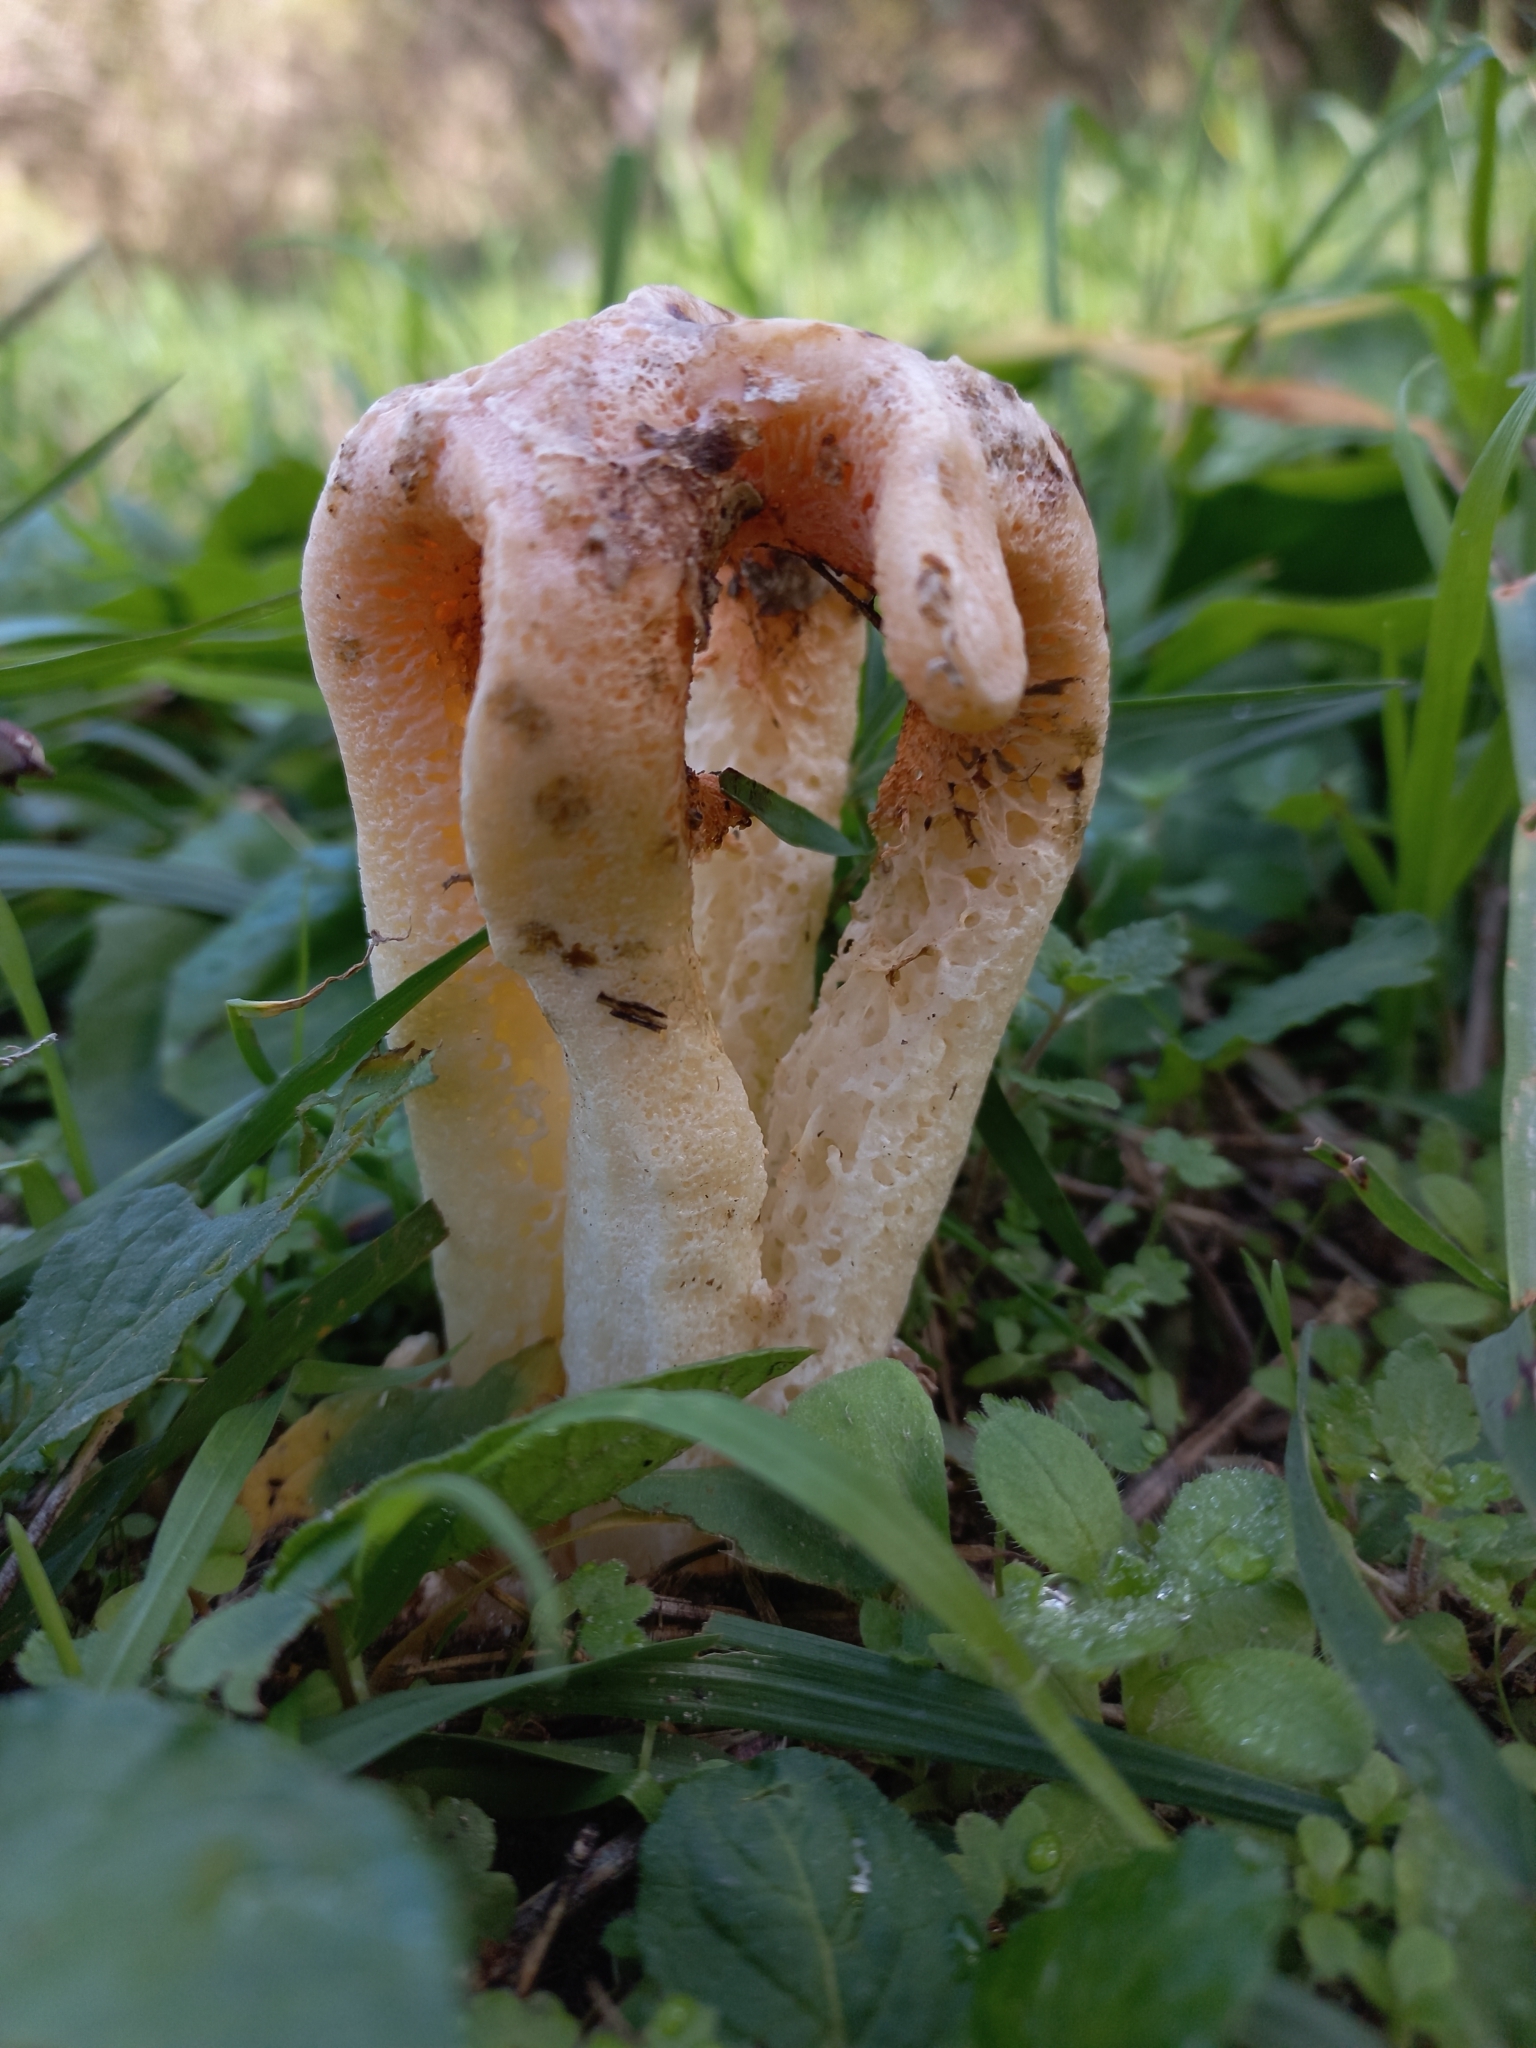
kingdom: Fungi
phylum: Basidiomycota
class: Agaricomycetes
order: Phallales
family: Phallaceae
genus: Clathrus
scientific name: Clathrus columnatus
